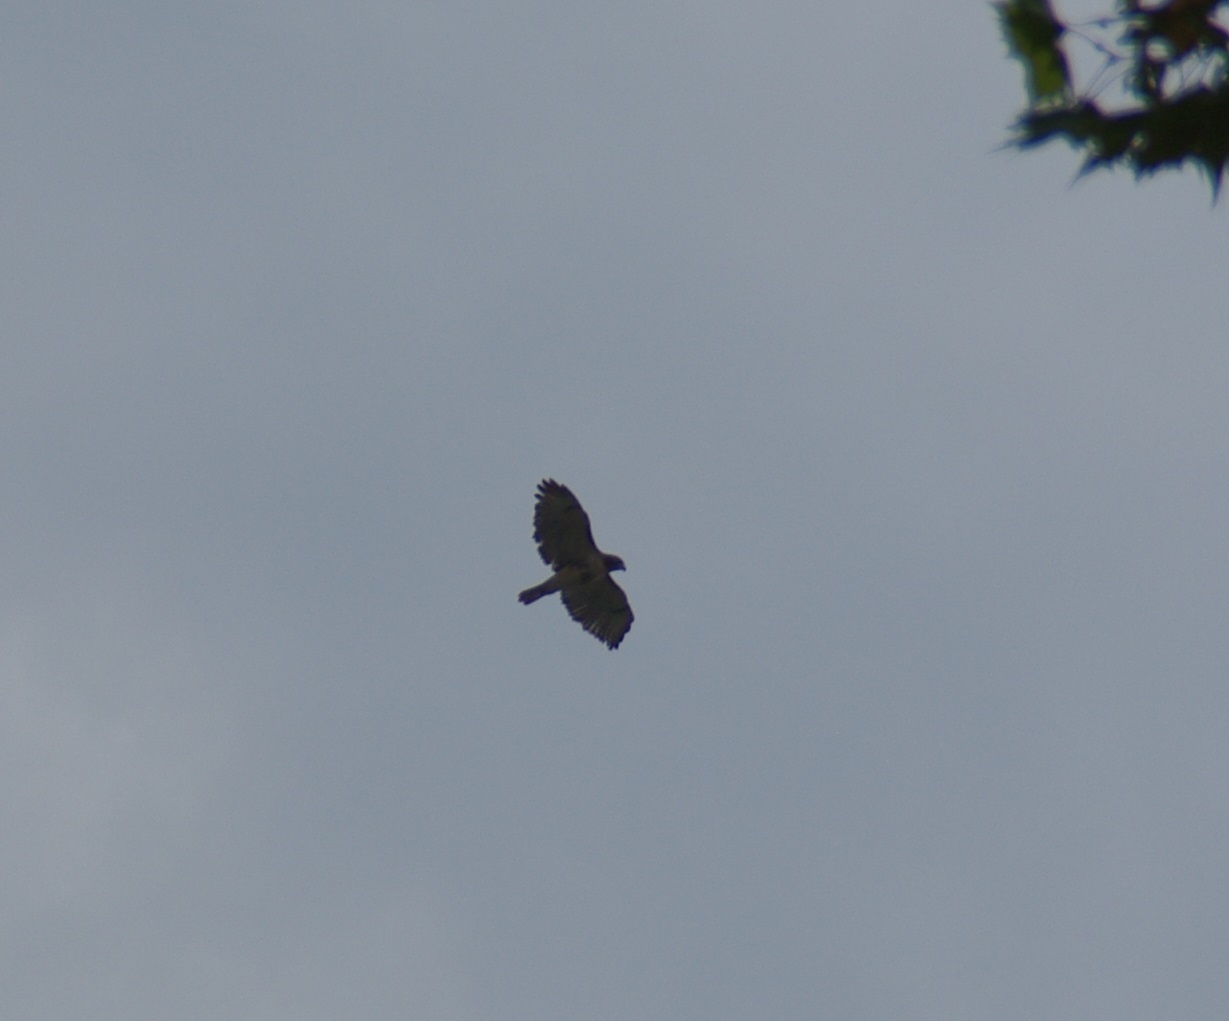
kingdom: Animalia
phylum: Chordata
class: Aves
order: Accipitriformes
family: Accipitridae
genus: Buteo
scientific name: Buteo jamaicensis
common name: Red-tailed hawk
